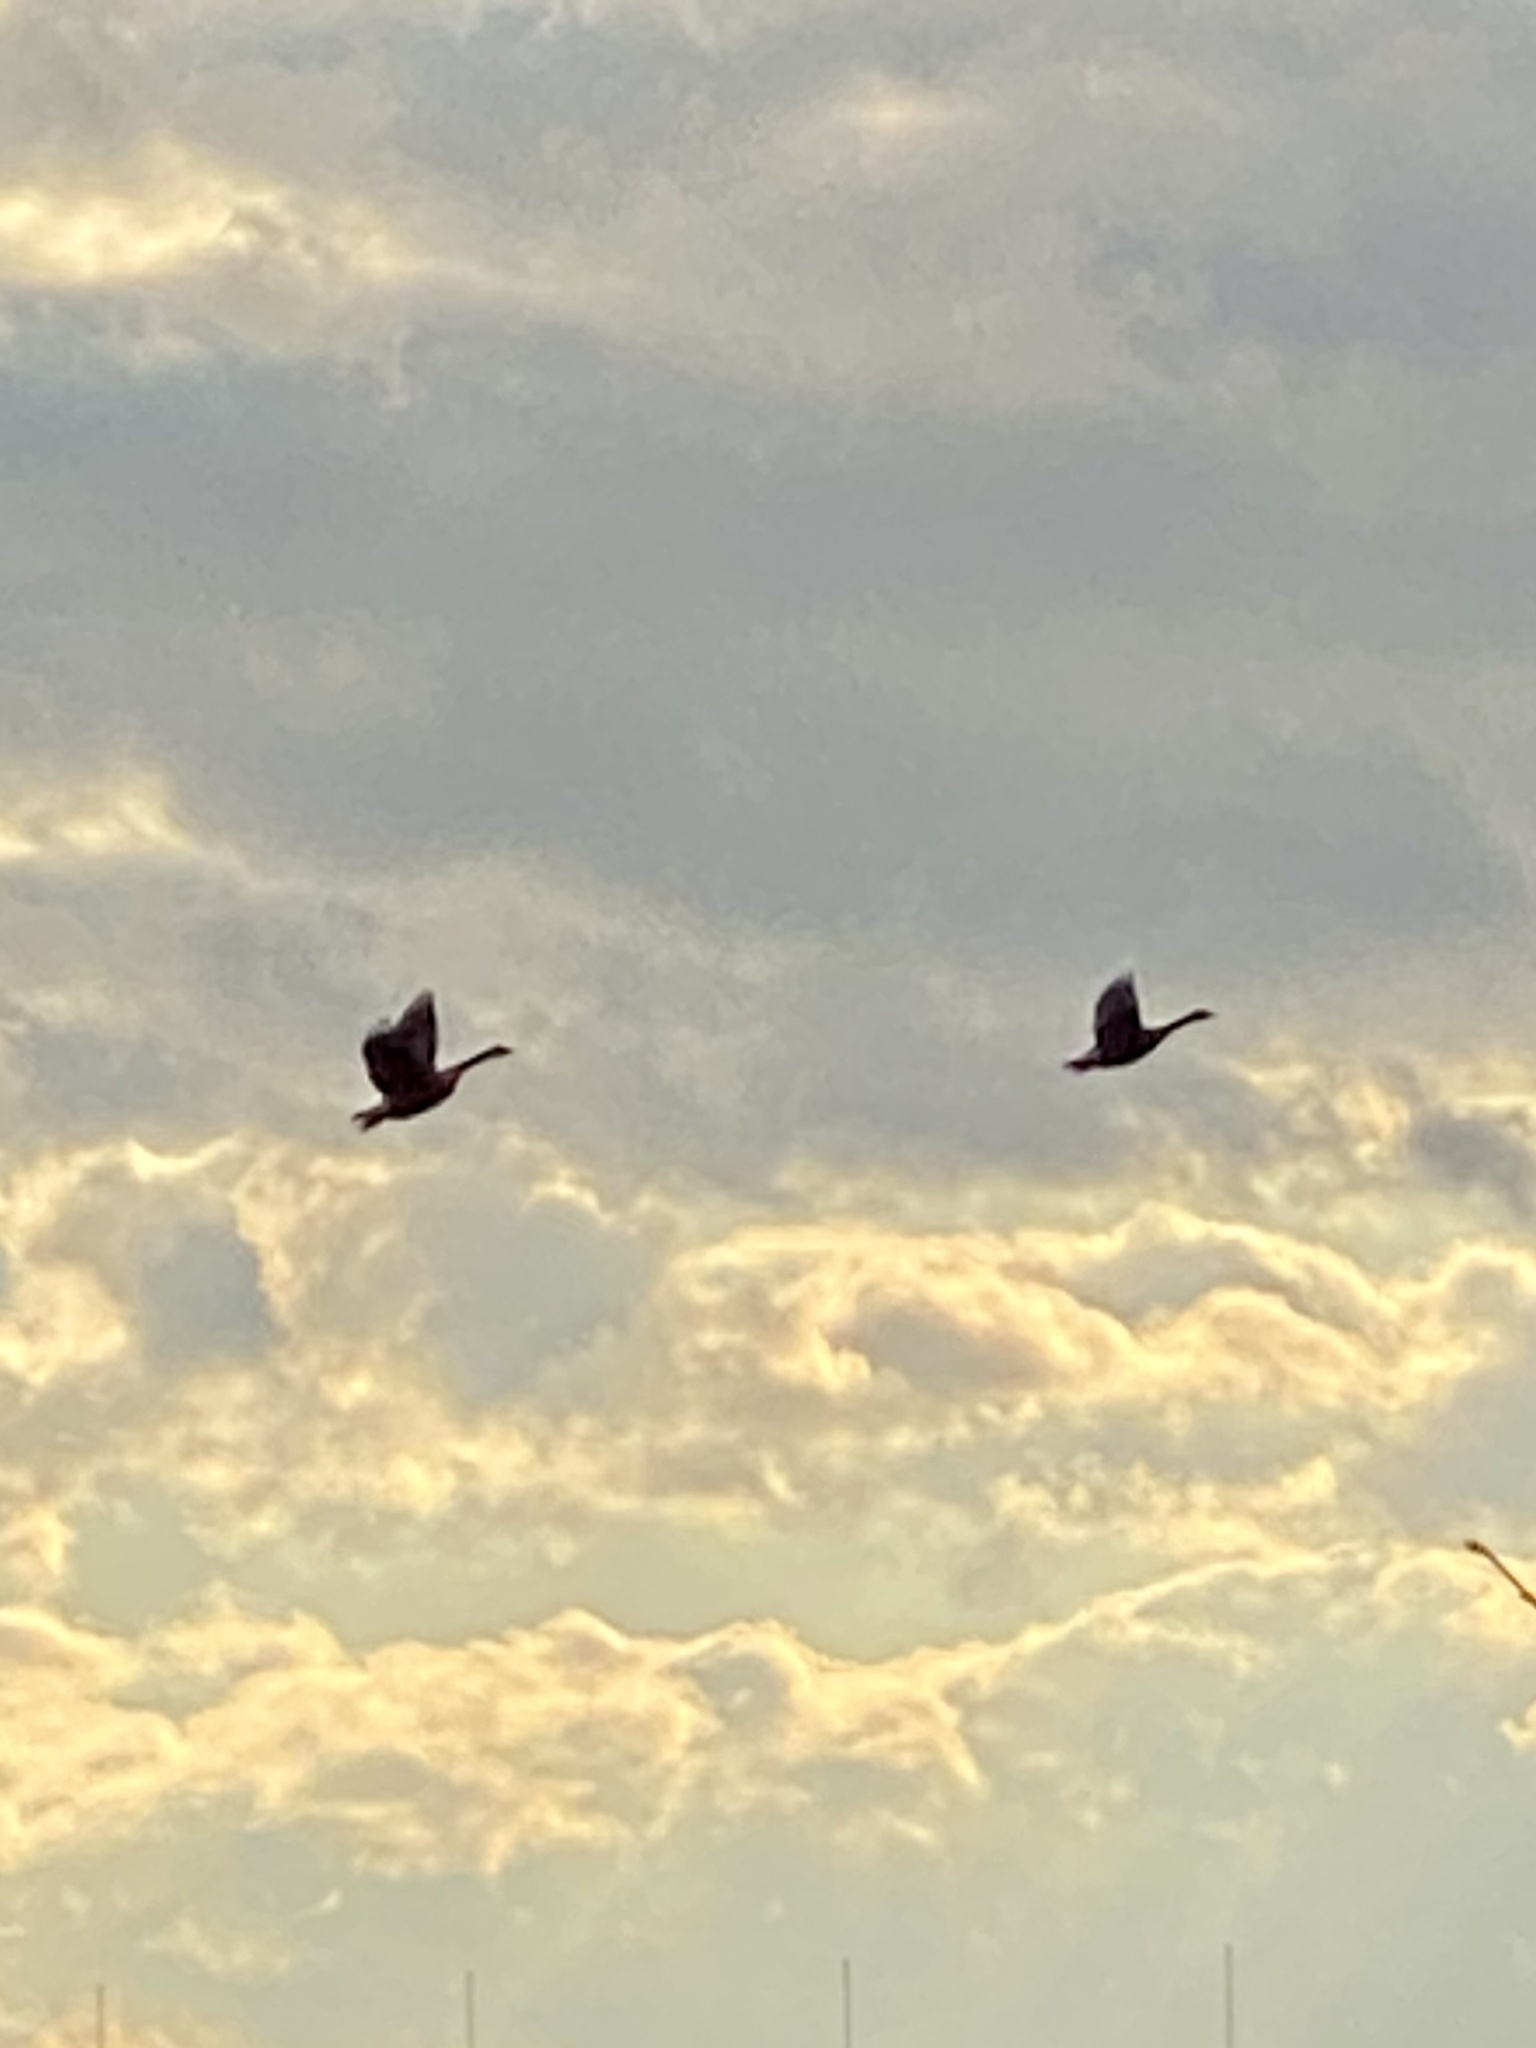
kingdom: Animalia
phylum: Chordata
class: Aves
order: Anseriformes
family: Anatidae
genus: Branta
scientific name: Branta canadensis
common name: Canada goose
